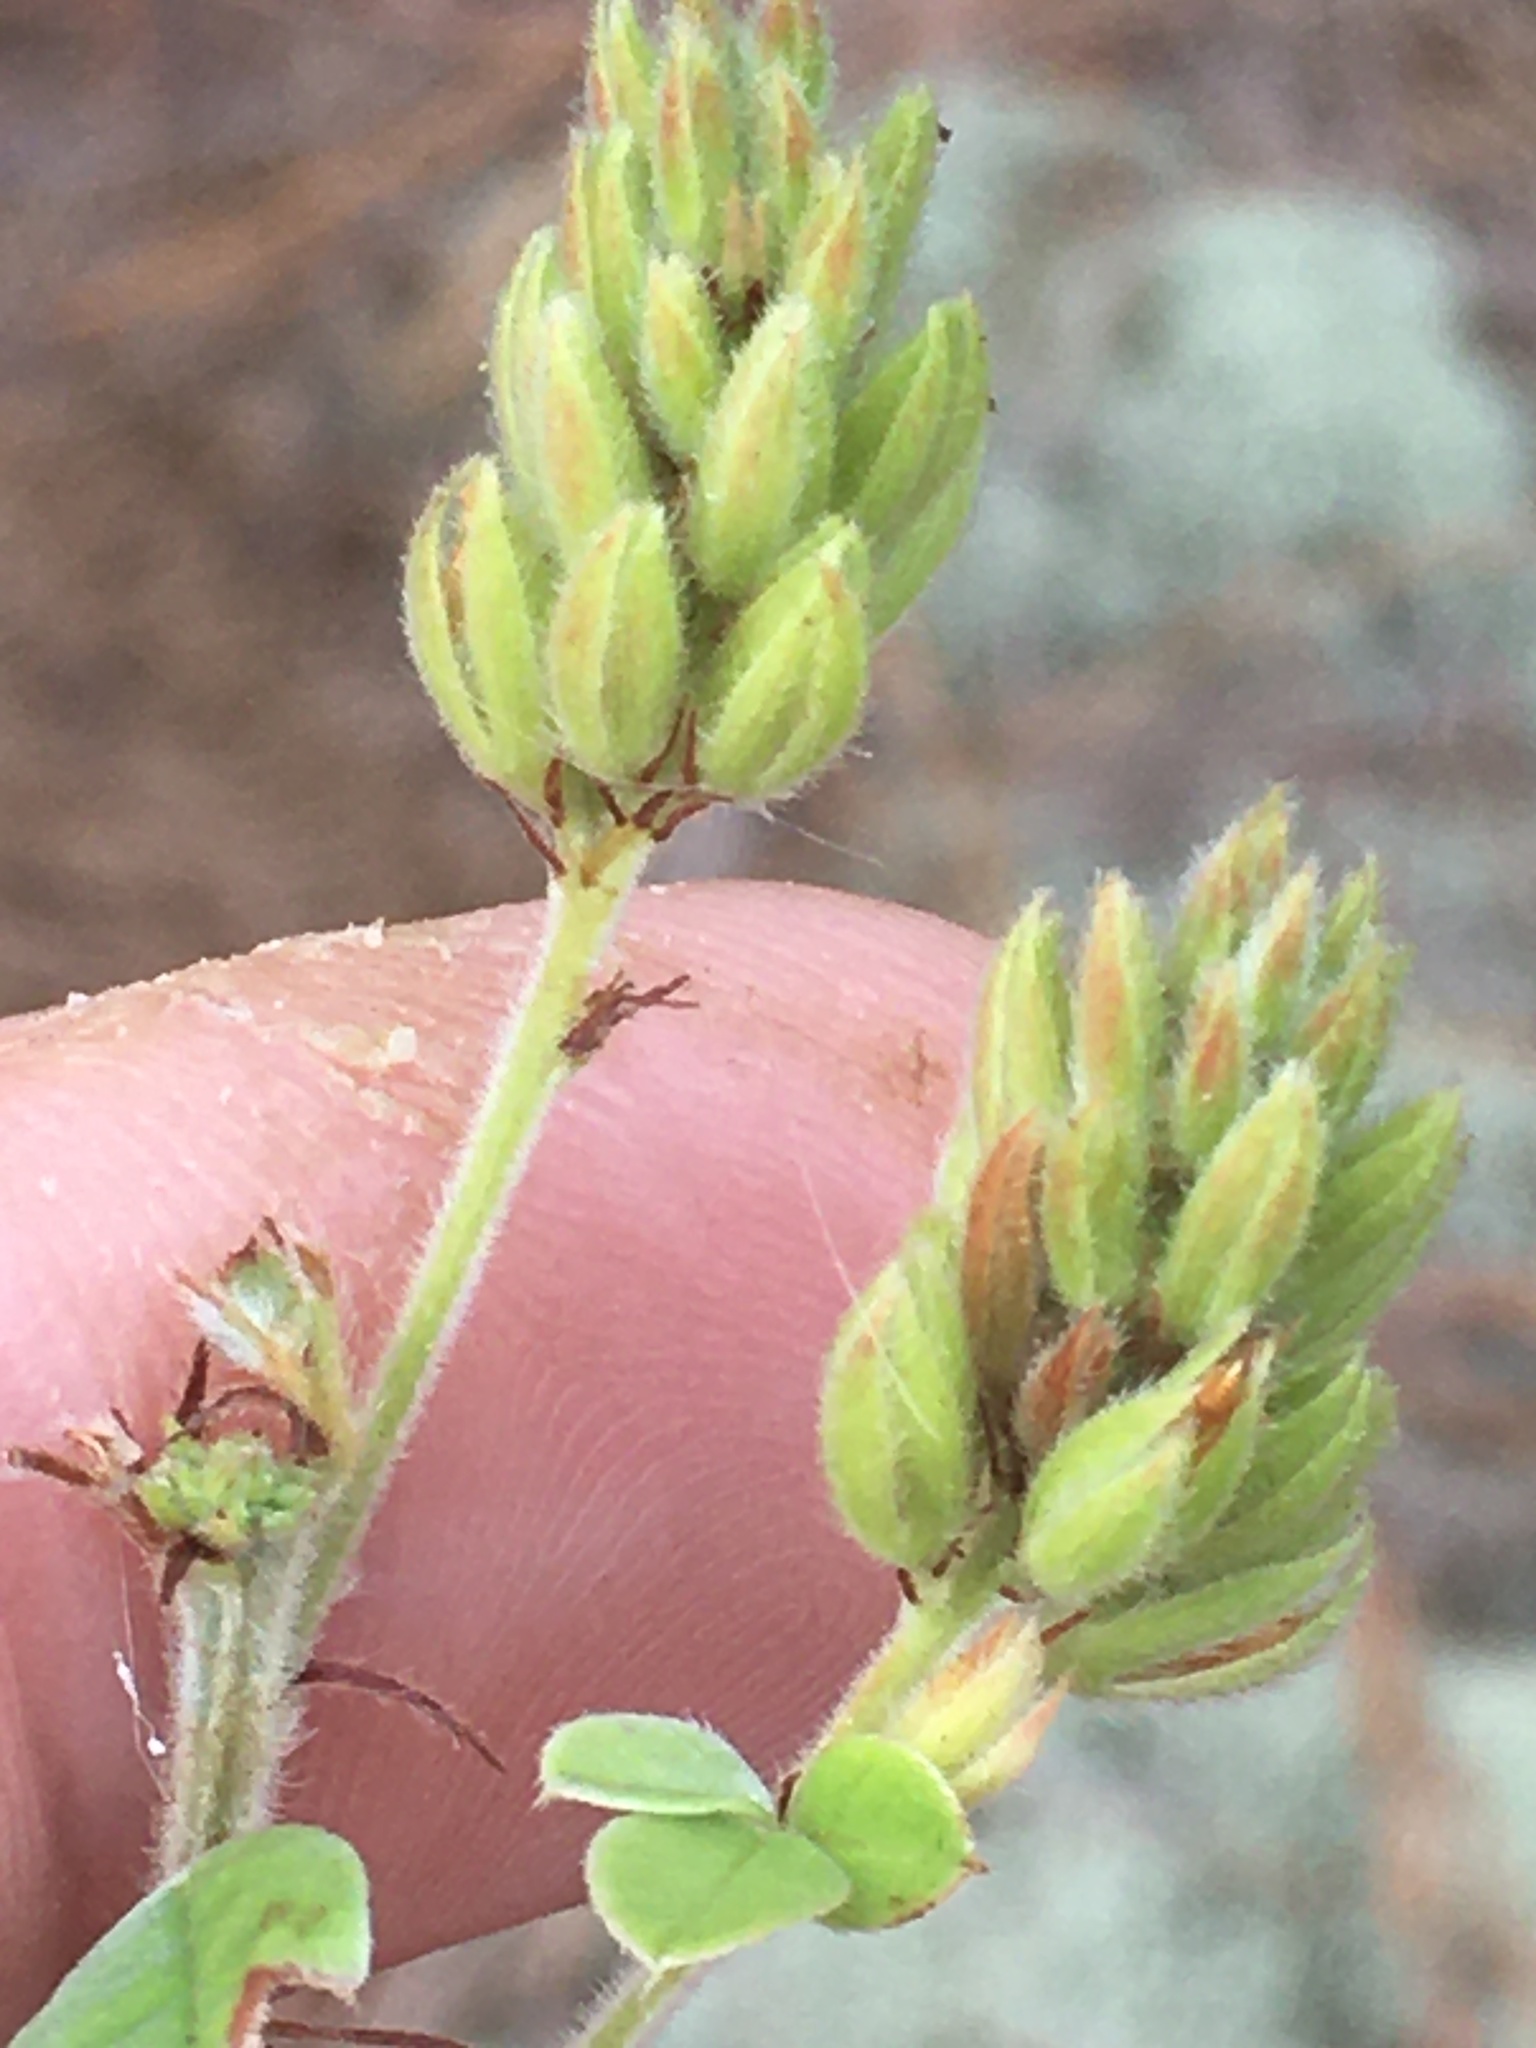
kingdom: Plantae
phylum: Tracheophyta
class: Magnoliopsida
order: Fabales
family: Fabaceae
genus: Lespedeza
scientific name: Lespedeza hirta
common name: Hairy lespedeza
